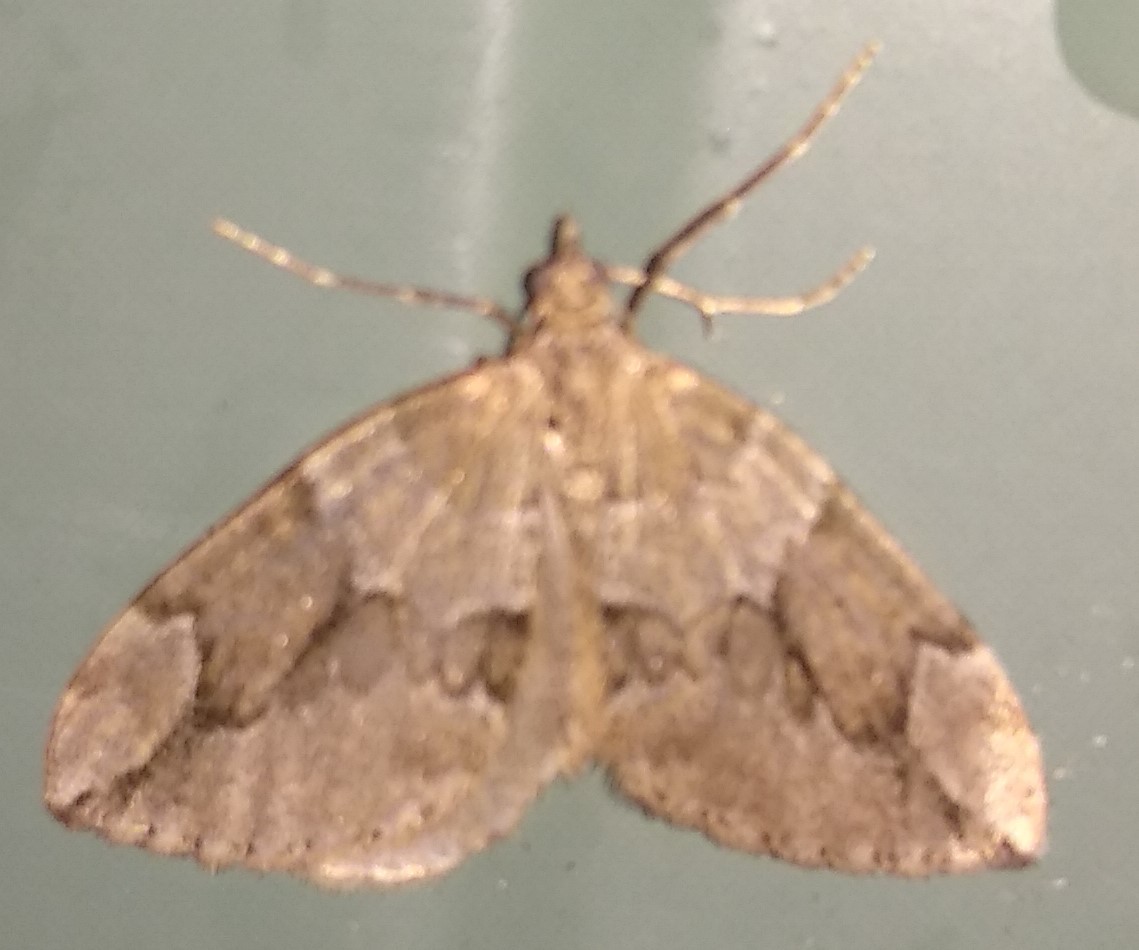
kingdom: Animalia
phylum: Arthropoda
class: Insecta
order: Lepidoptera
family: Geometridae
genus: Thera
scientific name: Thera juniperata
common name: Juniper carpet
